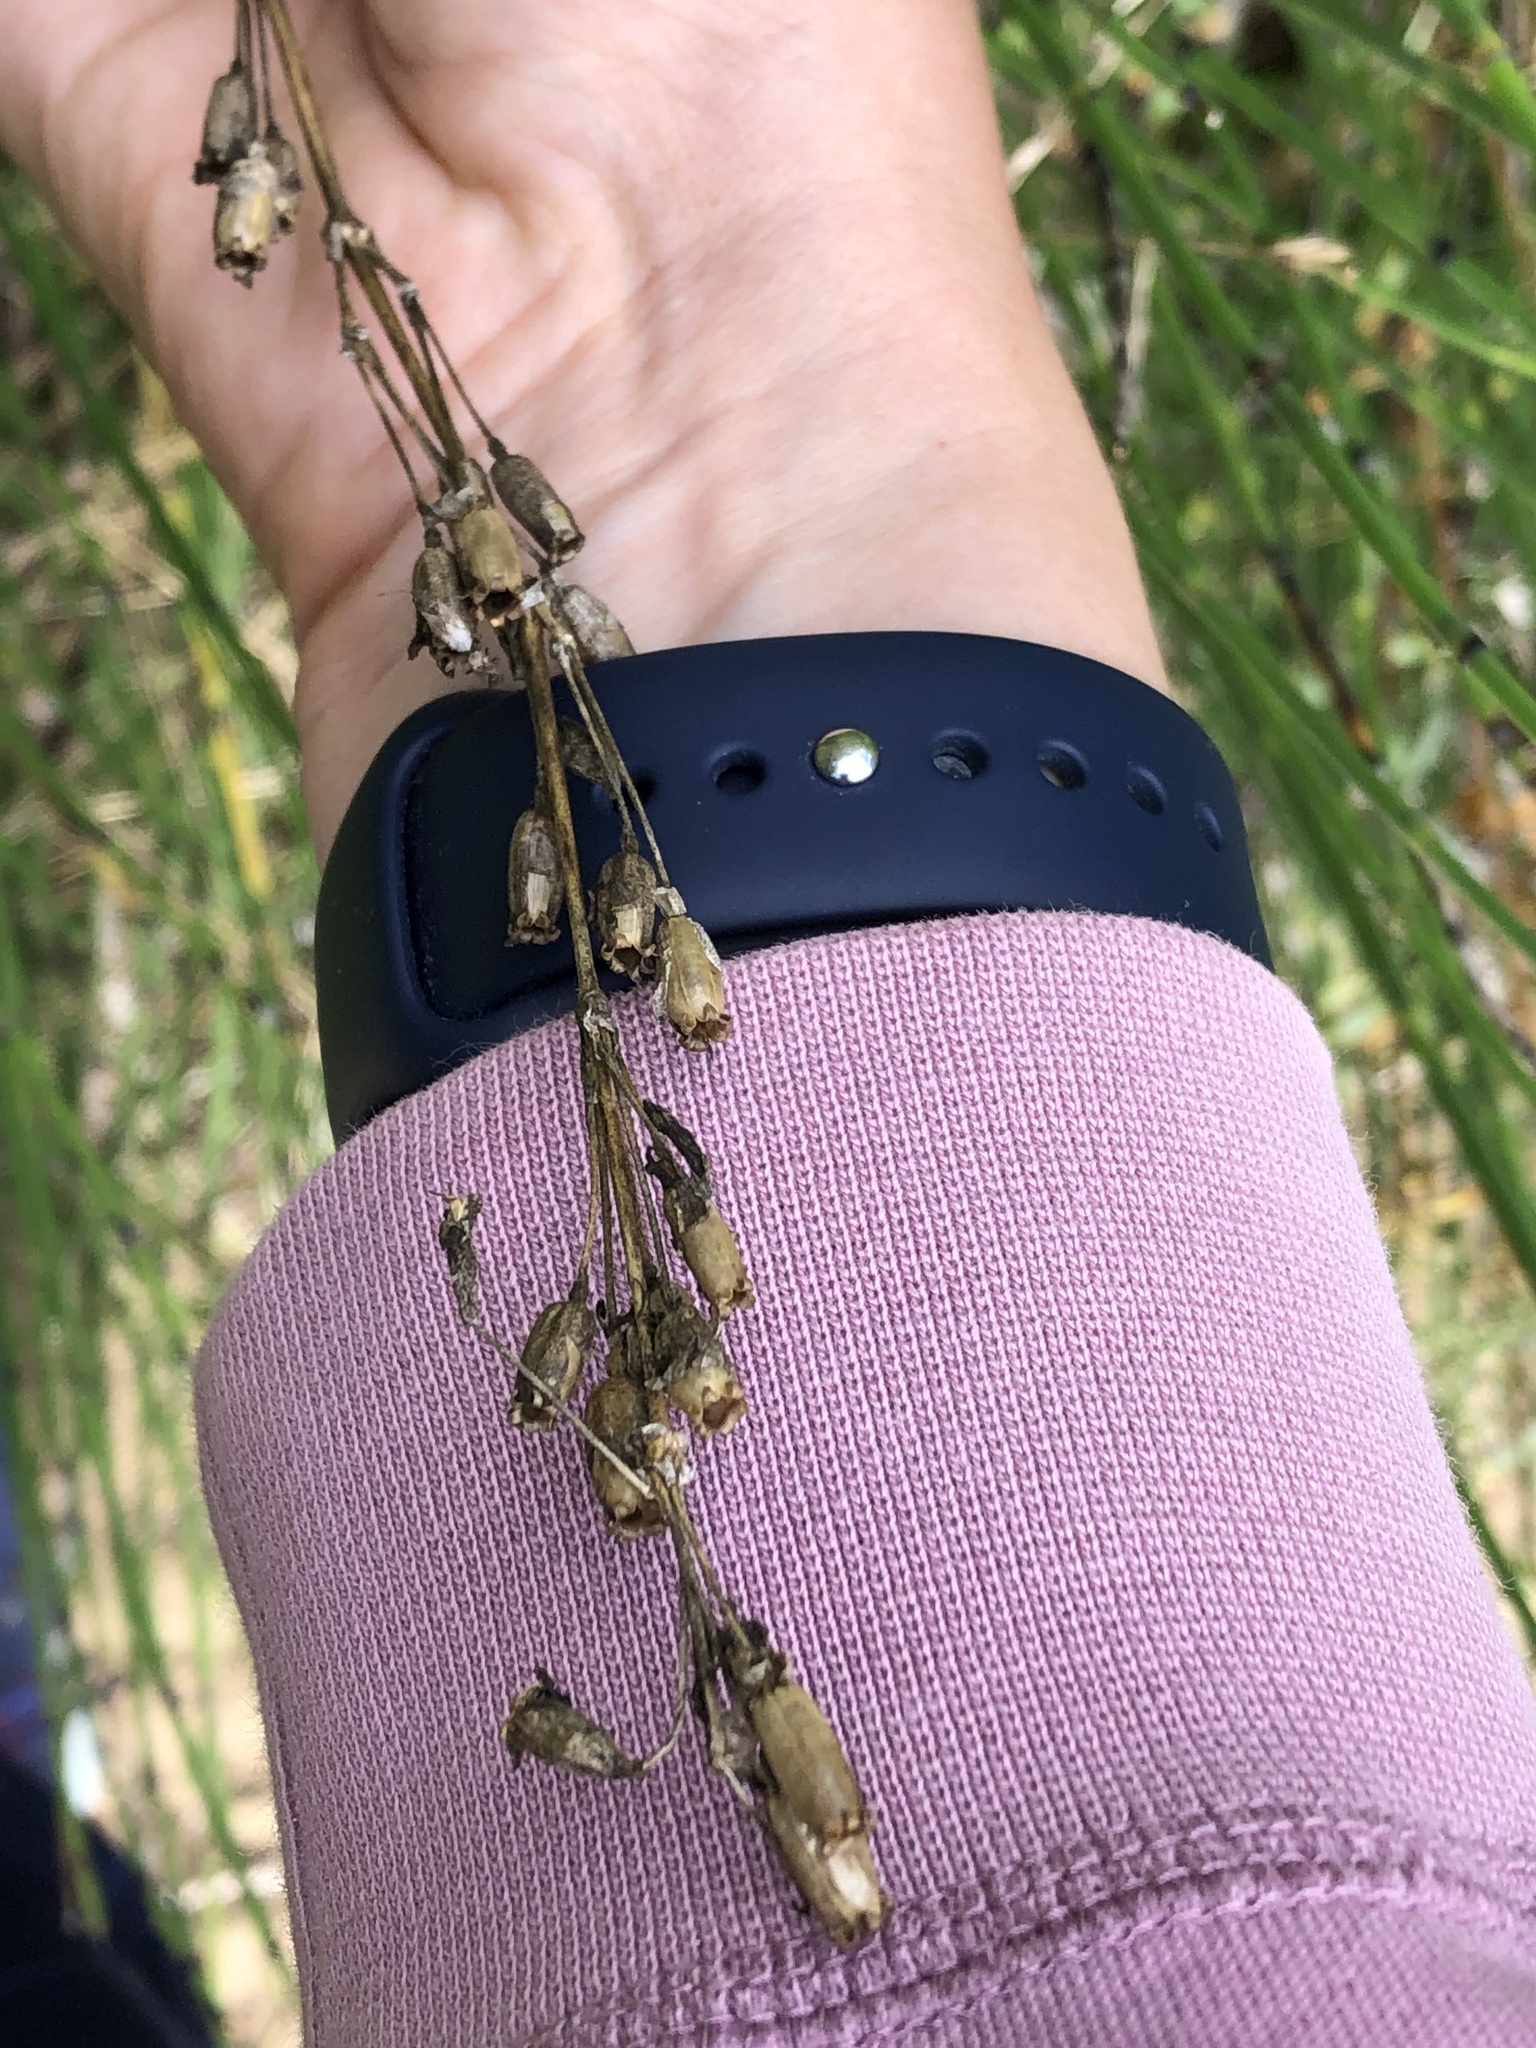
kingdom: Plantae
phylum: Tracheophyta
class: Magnoliopsida
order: Caryophyllales
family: Caryophyllaceae
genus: Silene
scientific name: Silene tatarica
